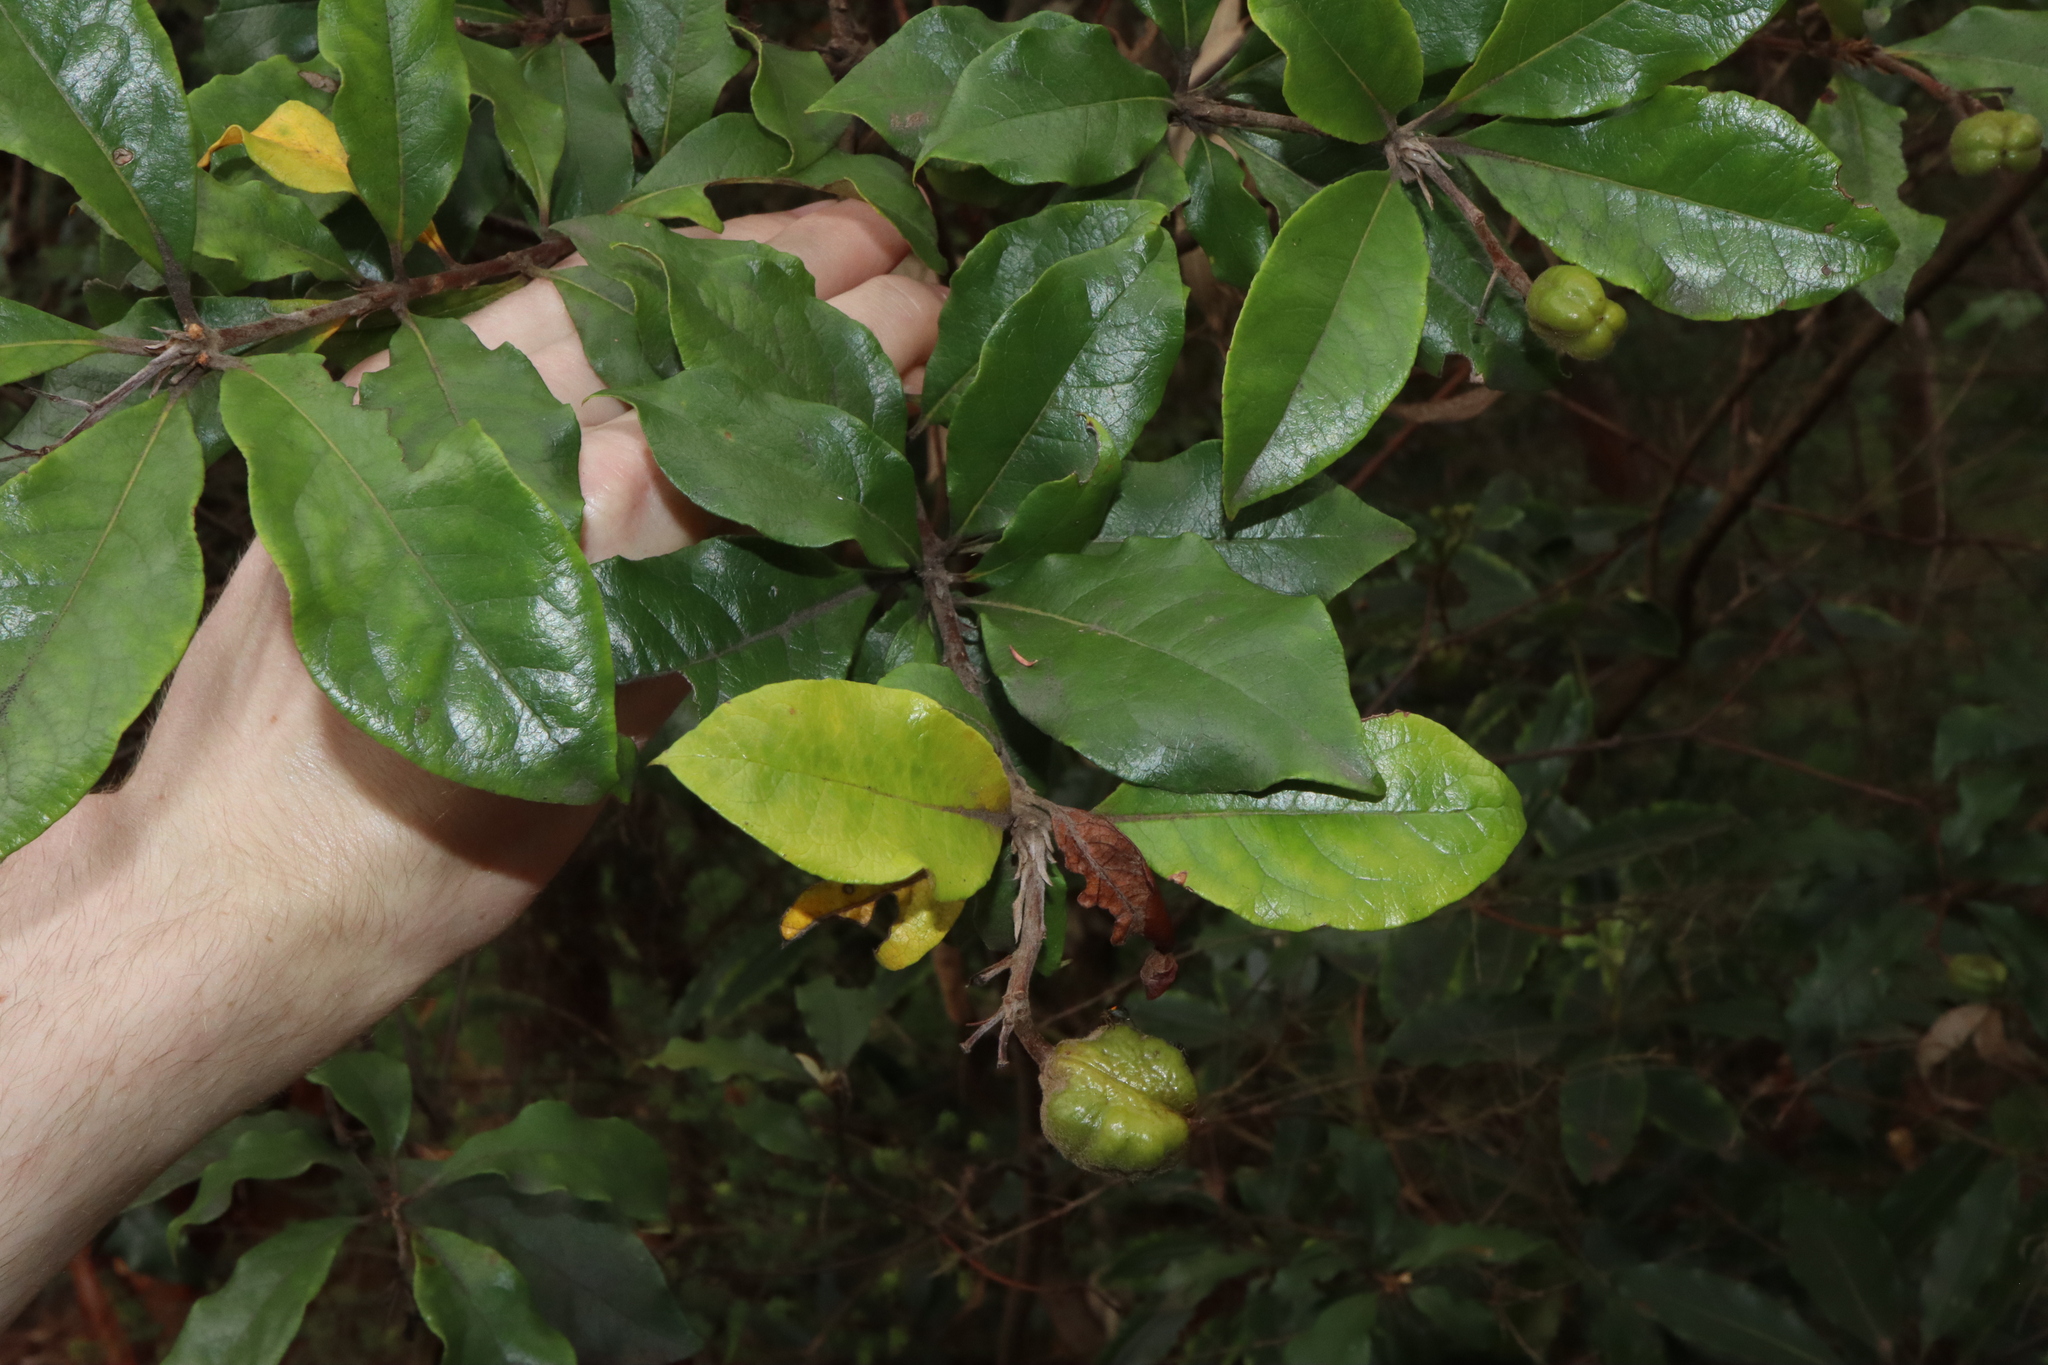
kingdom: Plantae
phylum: Tracheophyta
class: Magnoliopsida
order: Apiales
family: Pittosporaceae
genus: Pittosporum
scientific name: Pittosporum revolutum
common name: Brisbane-laurel
